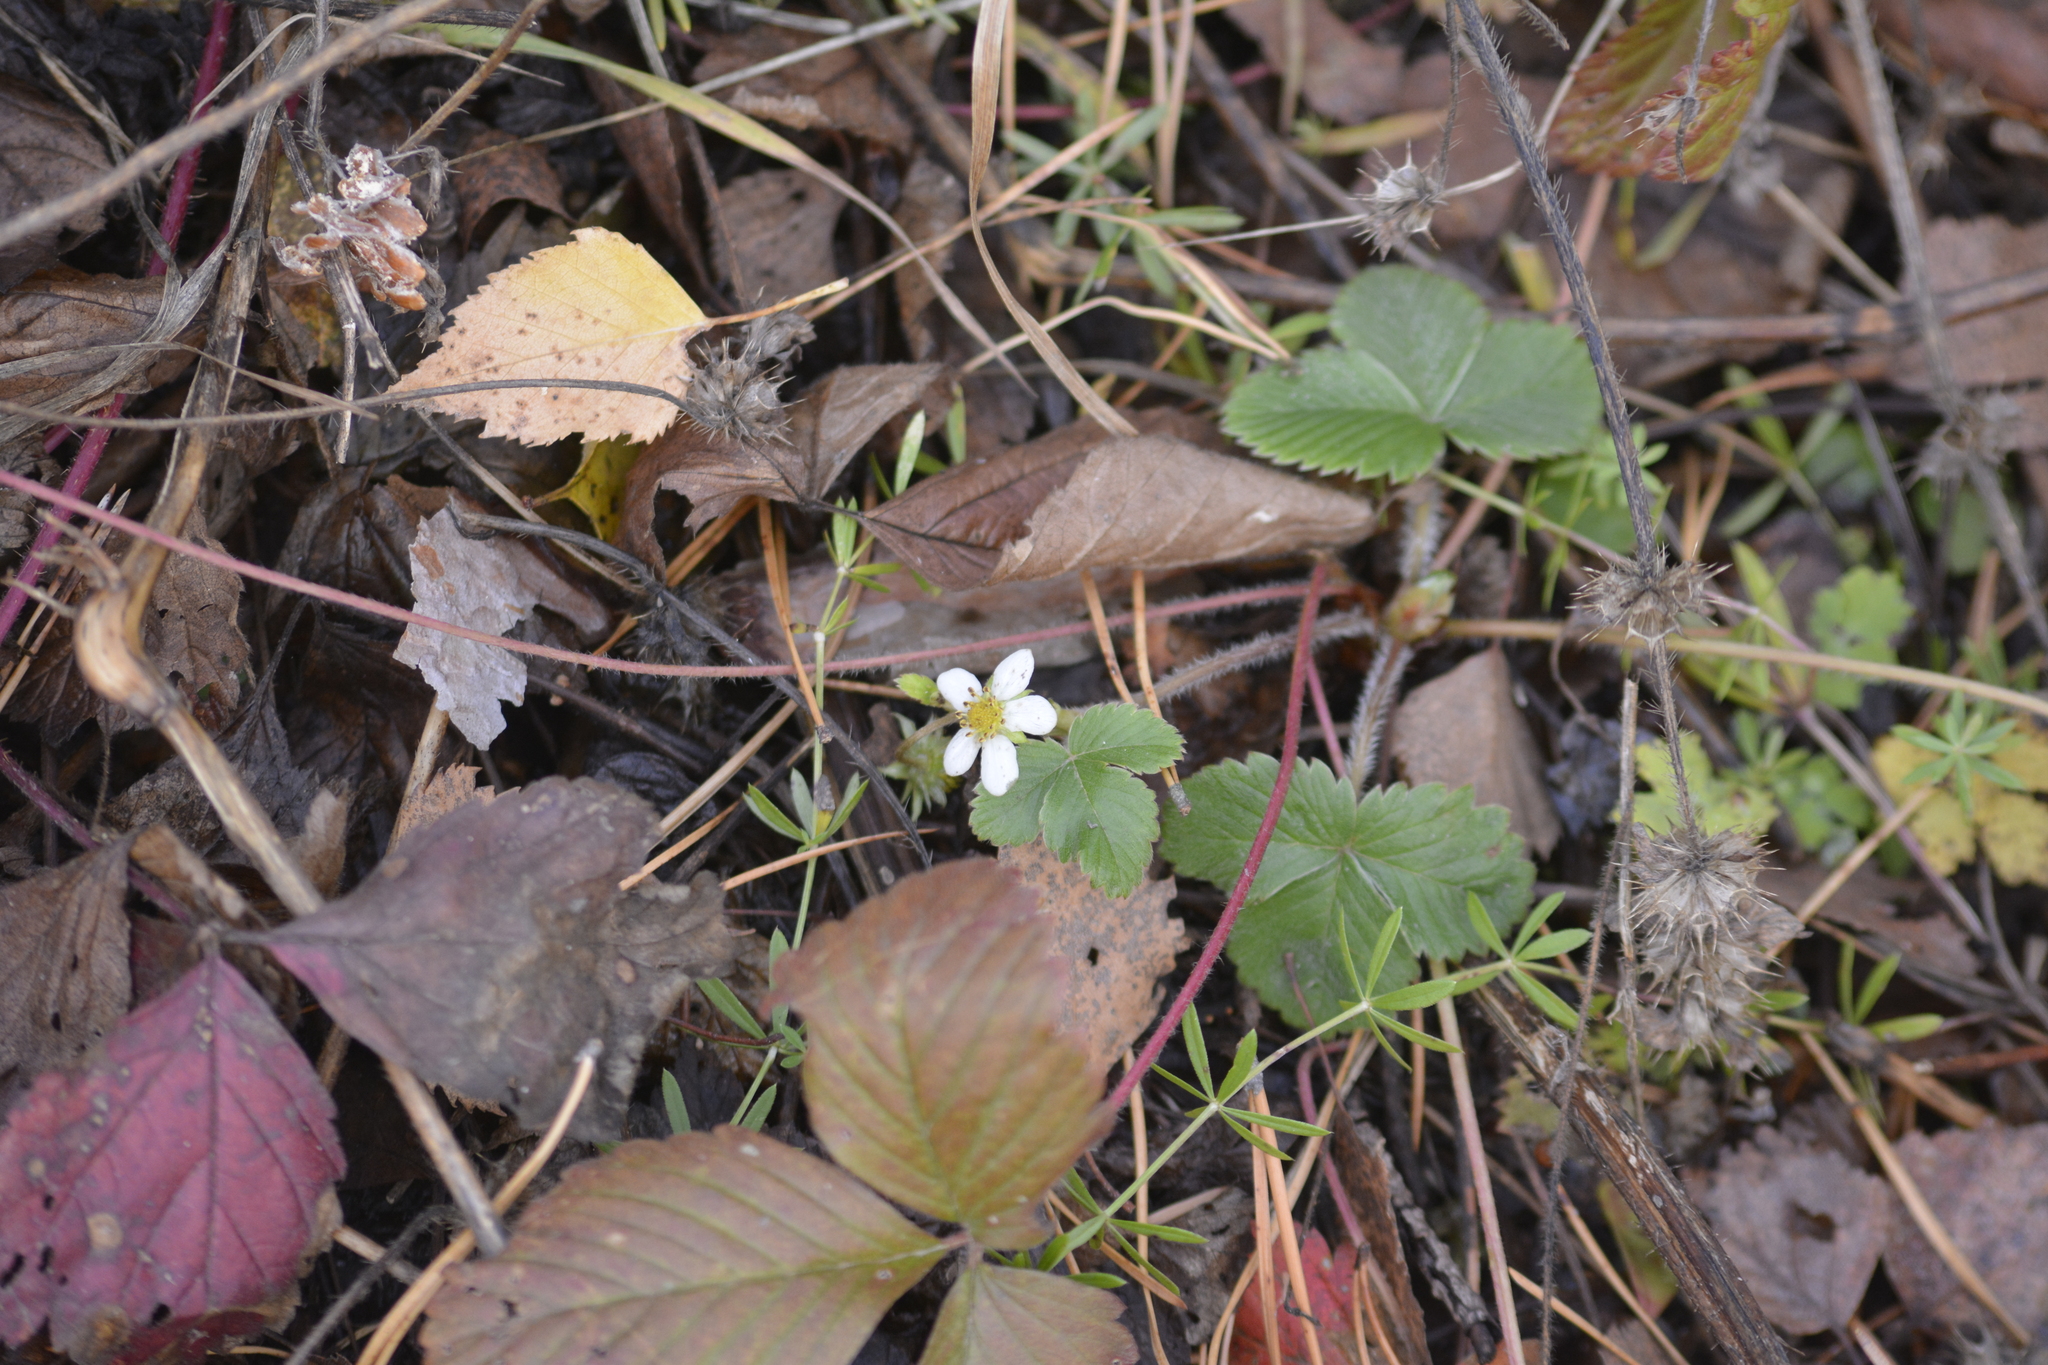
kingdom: Plantae
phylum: Tracheophyta
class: Magnoliopsida
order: Rosales
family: Rosaceae
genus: Fragaria
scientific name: Fragaria vesca
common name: Wild strawberry
